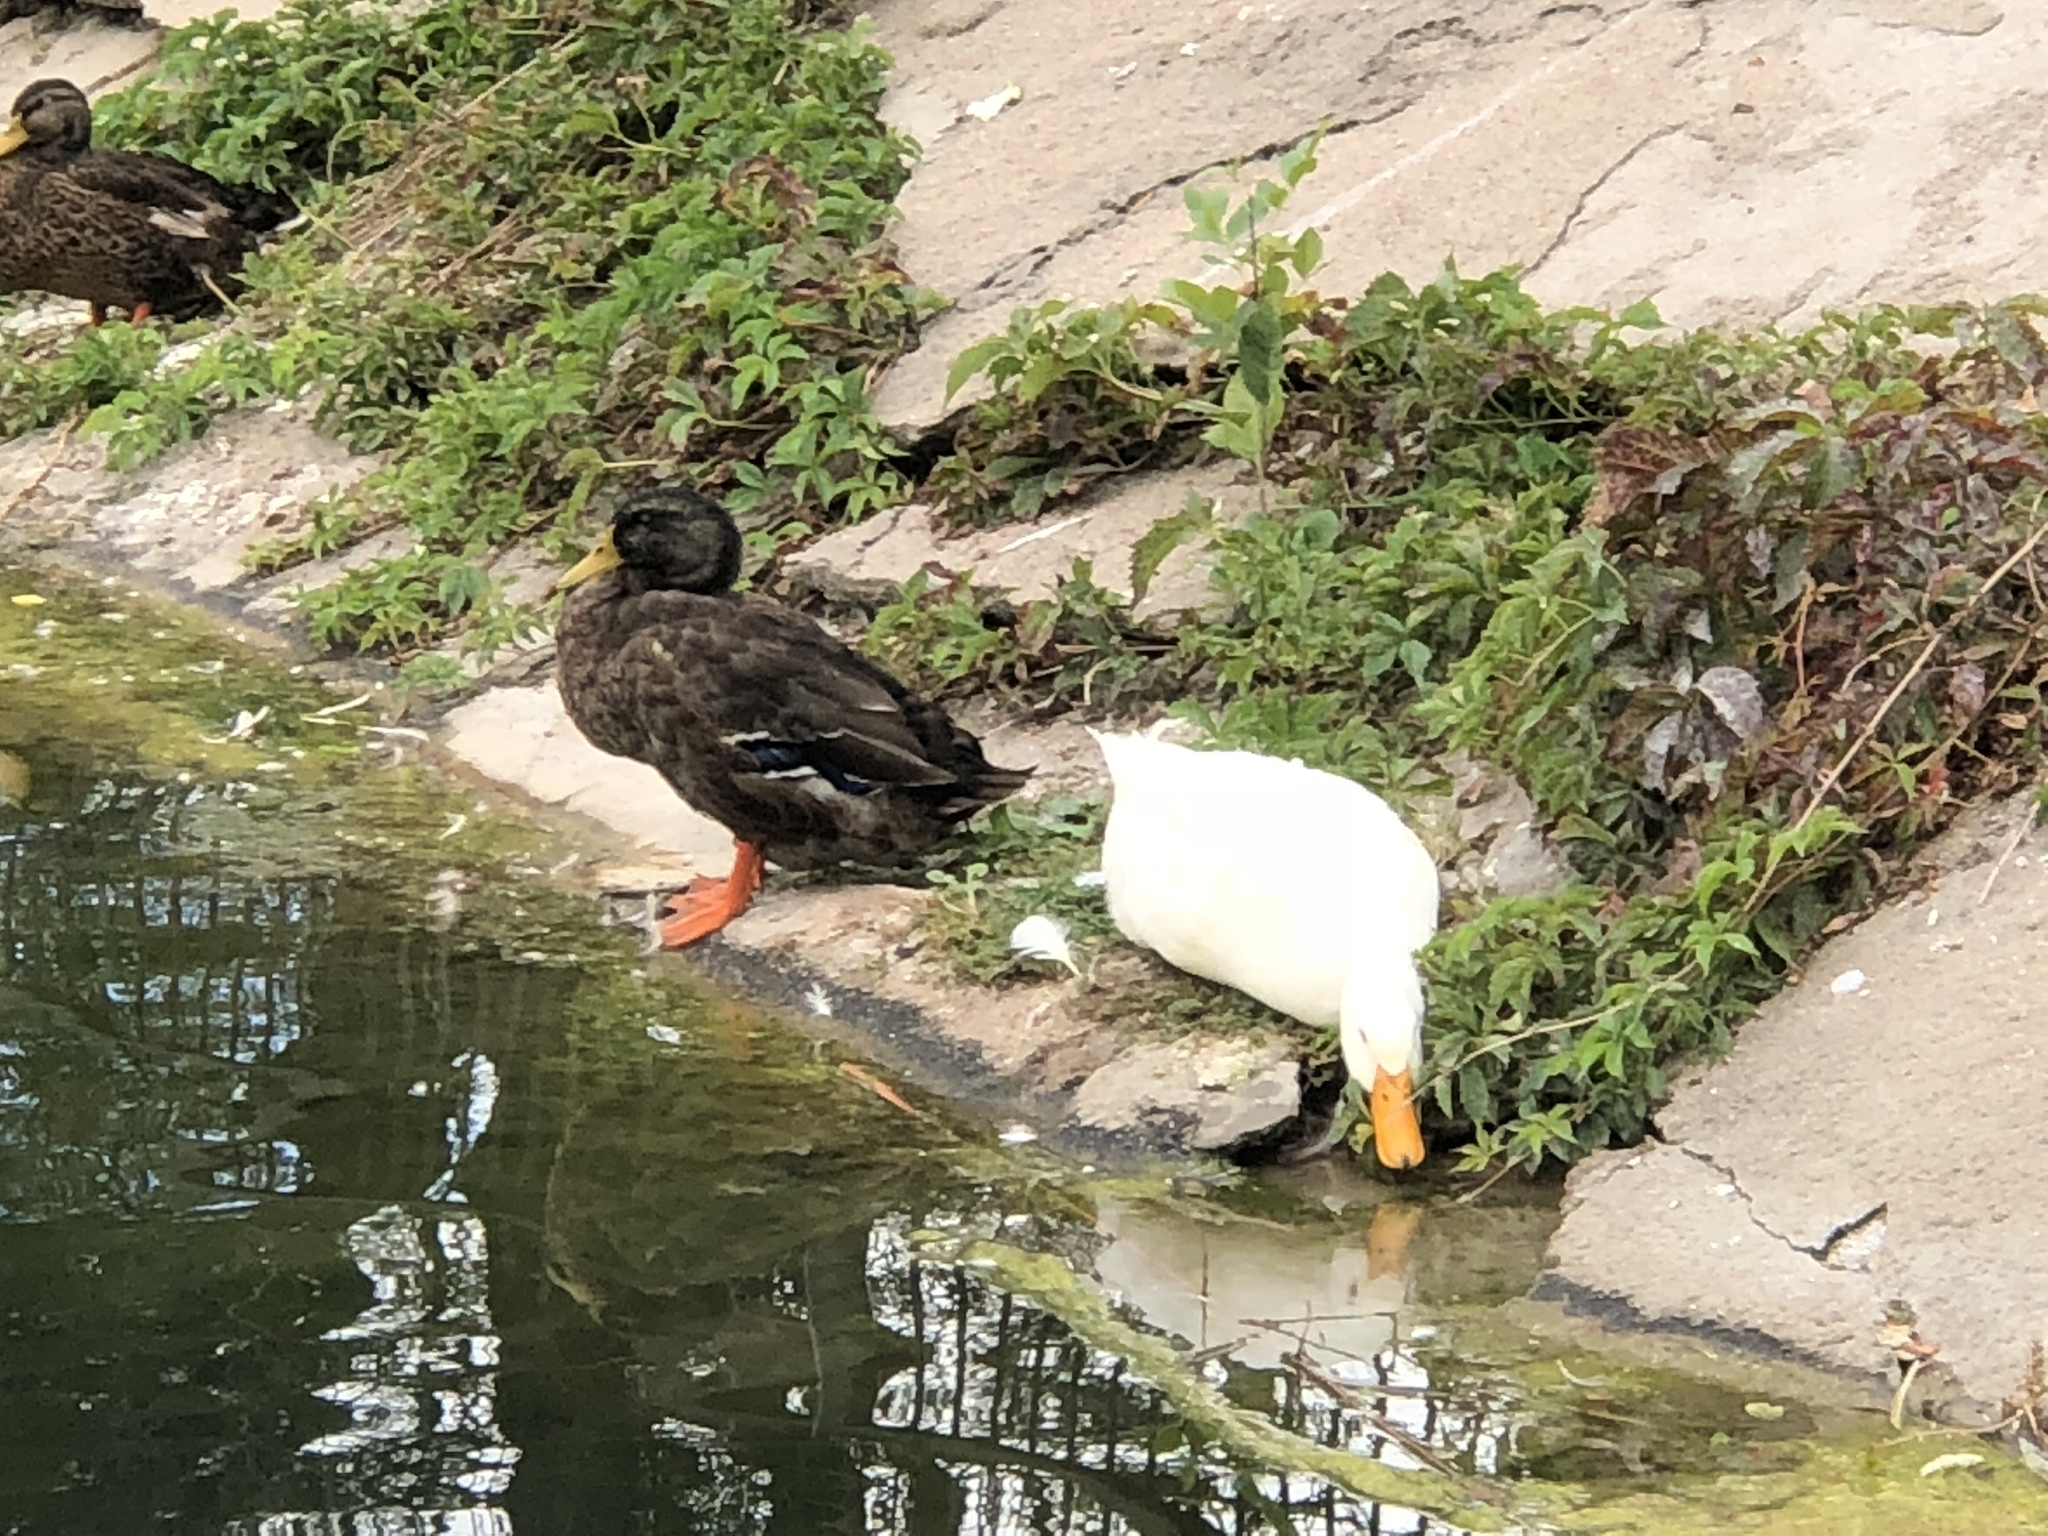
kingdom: Animalia
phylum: Chordata
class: Aves
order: Anseriformes
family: Anatidae
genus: Anas
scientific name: Anas platyrhynchos
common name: Mallard
